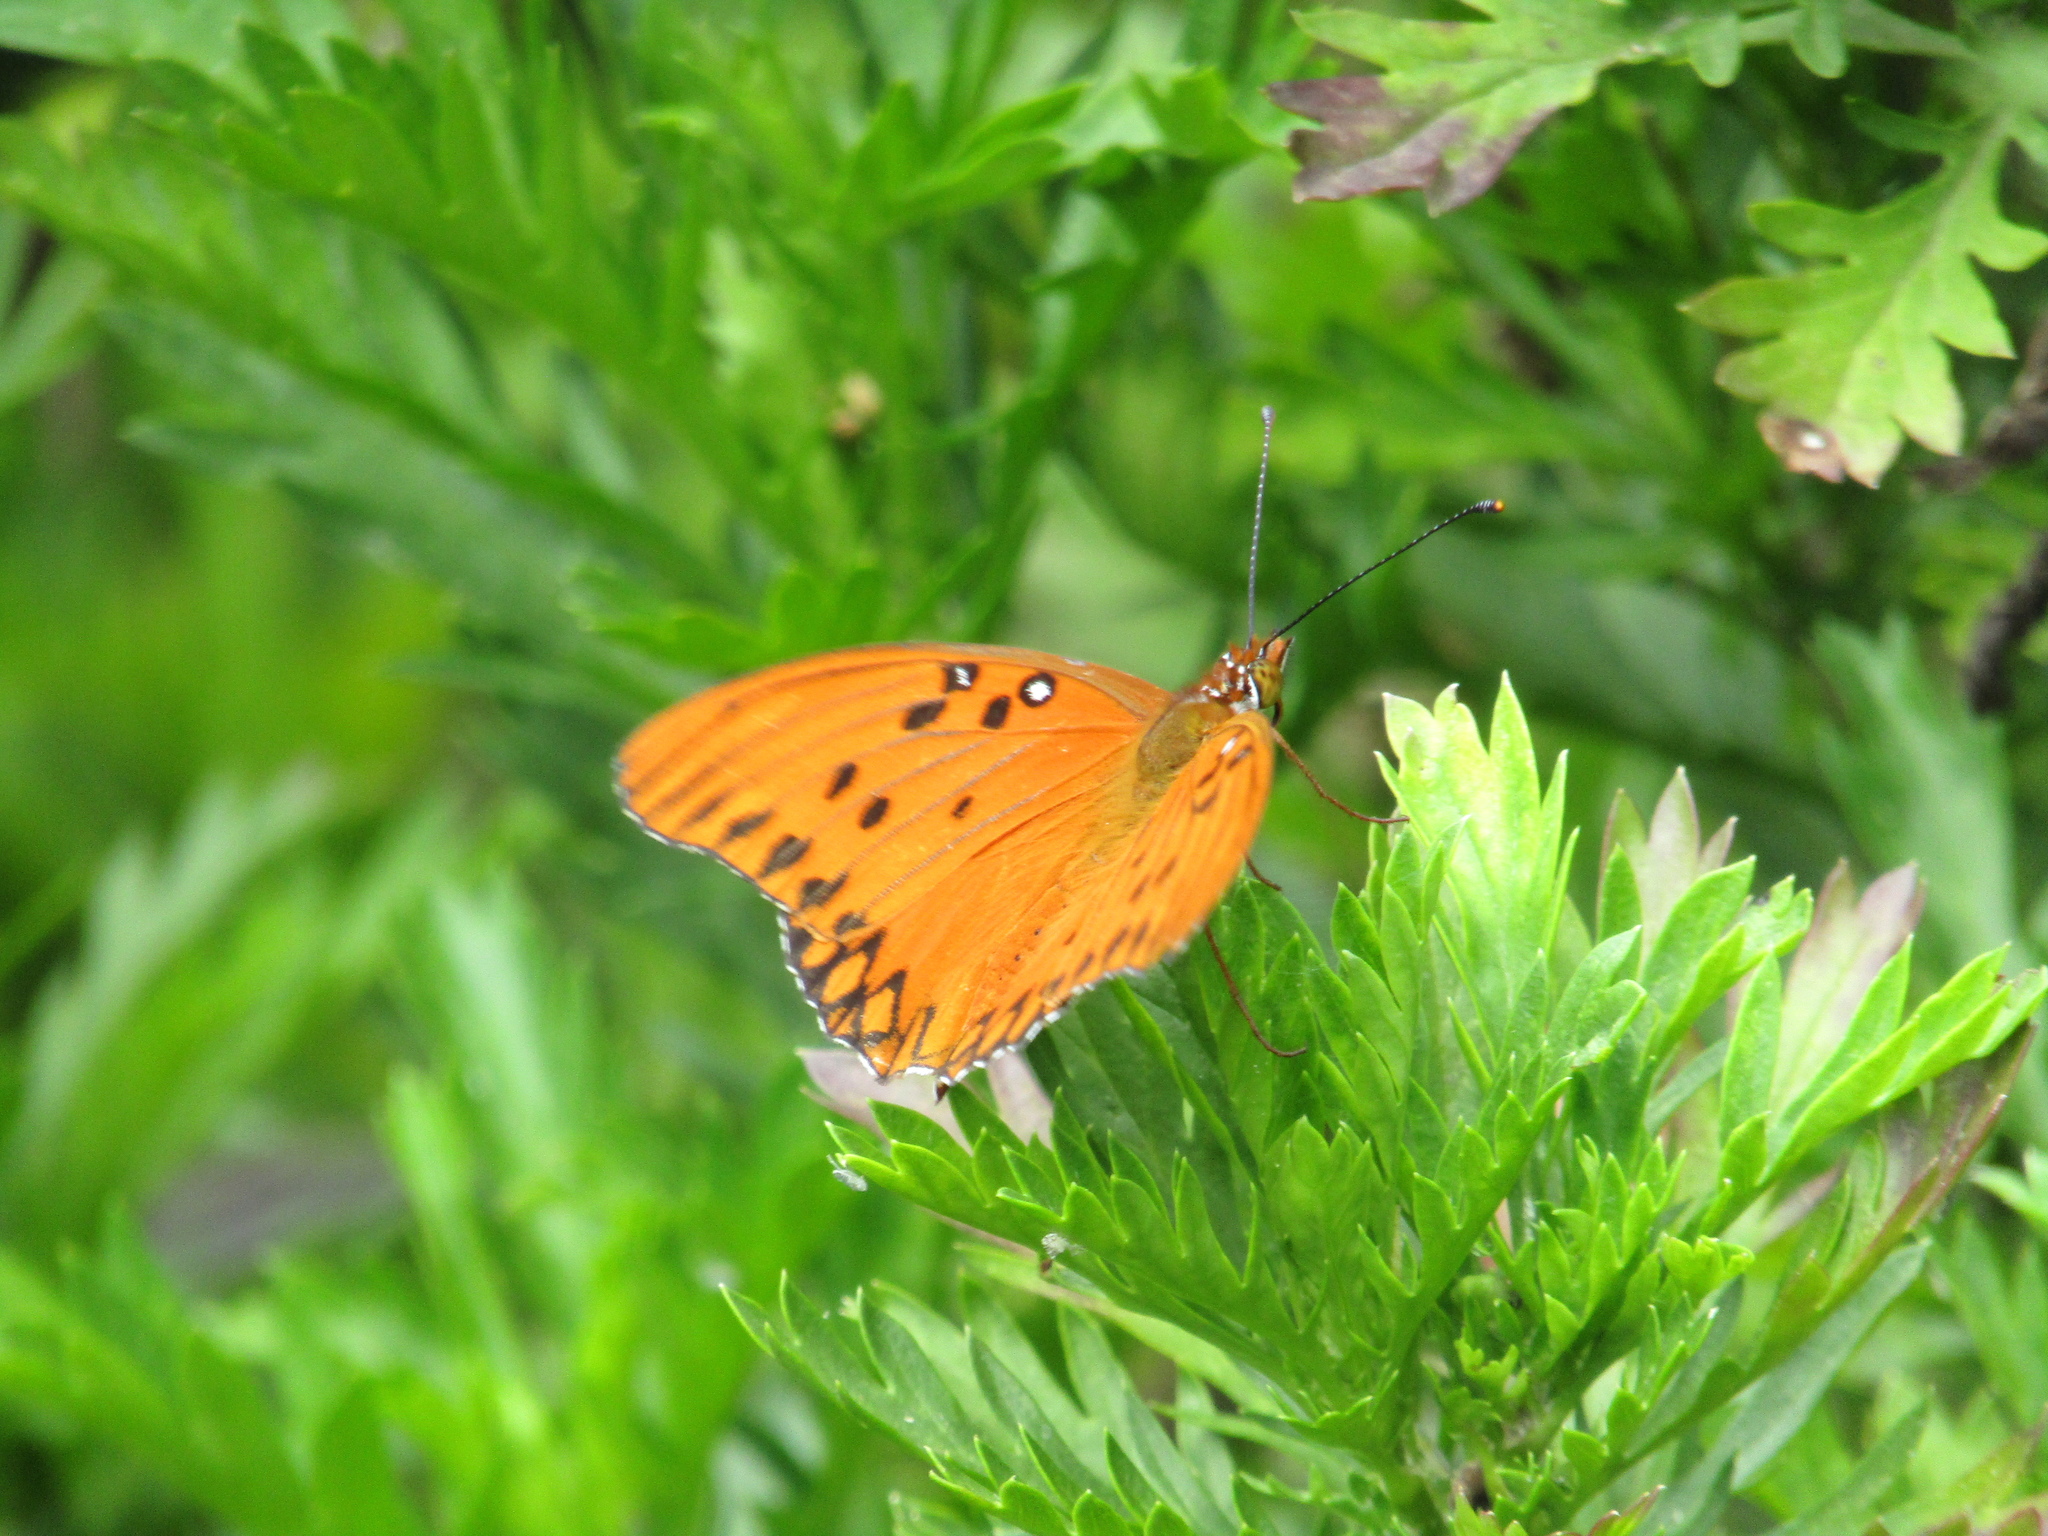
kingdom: Animalia
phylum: Arthropoda
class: Insecta
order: Lepidoptera
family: Nymphalidae
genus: Dione
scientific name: Dione vanillae
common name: Gulf fritillary
